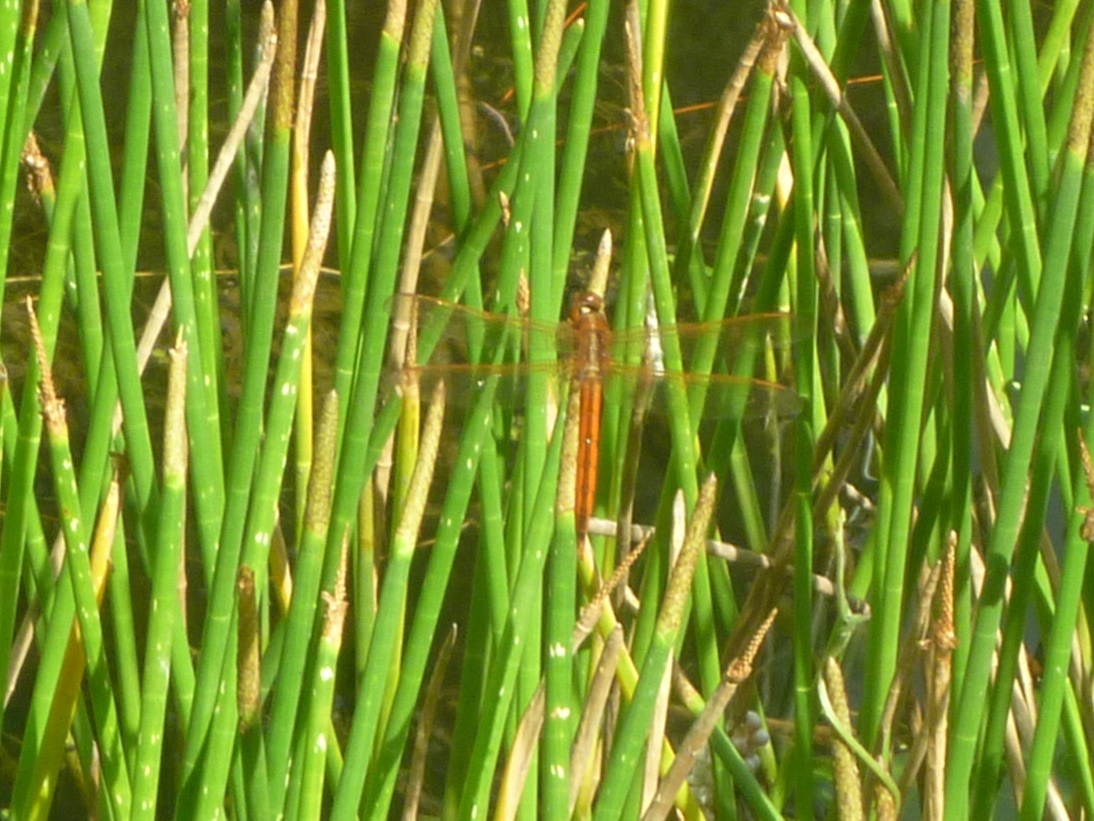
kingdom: Animalia
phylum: Arthropoda
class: Insecta
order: Odonata
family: Libellulidae
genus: Libellula
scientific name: Libellula needhami
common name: Needham's skimmer
